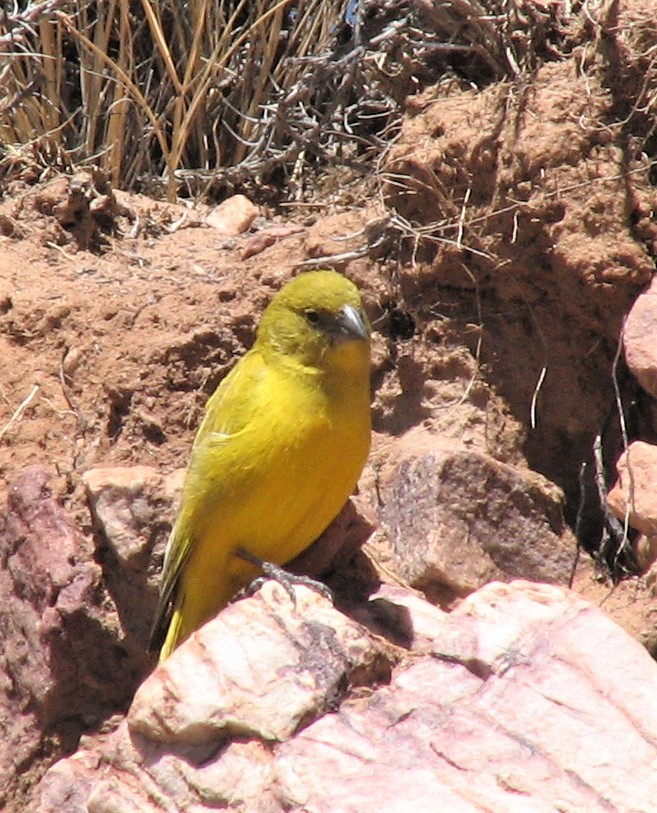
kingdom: Animalia
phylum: Chordata
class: Aves
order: Passeriformes
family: Thraupidae
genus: Sicalis
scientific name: Sicalis lutea
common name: Puna yellow finch
